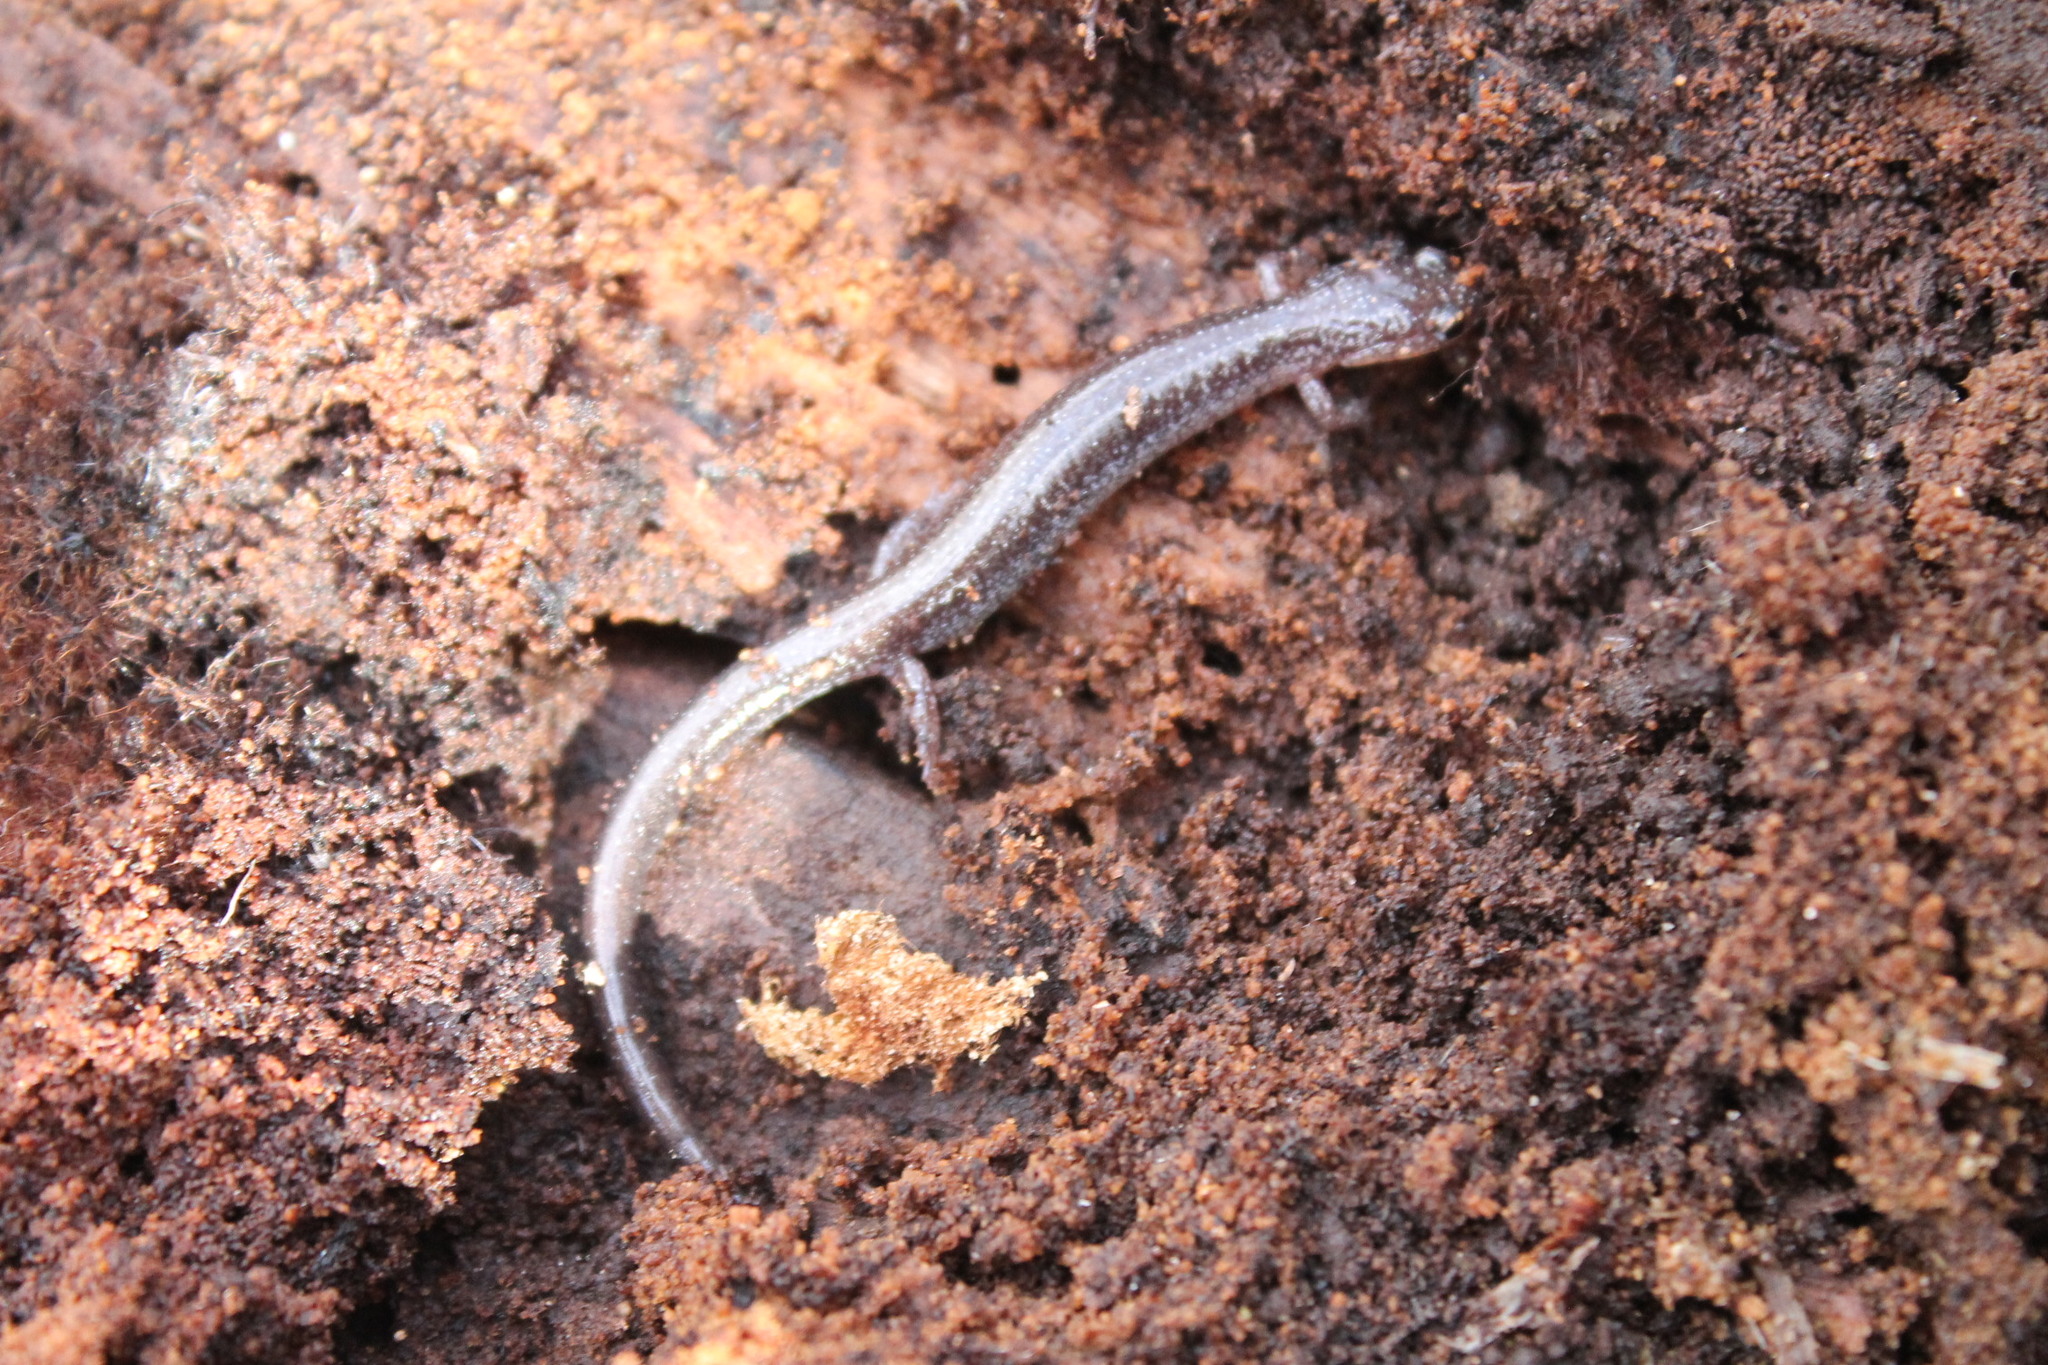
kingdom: Animalia
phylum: Chordata
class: Amphibia
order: Caudata
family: Plethodontidae
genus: Plethodon
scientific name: Plethodon cinereus
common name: Redback salamander
